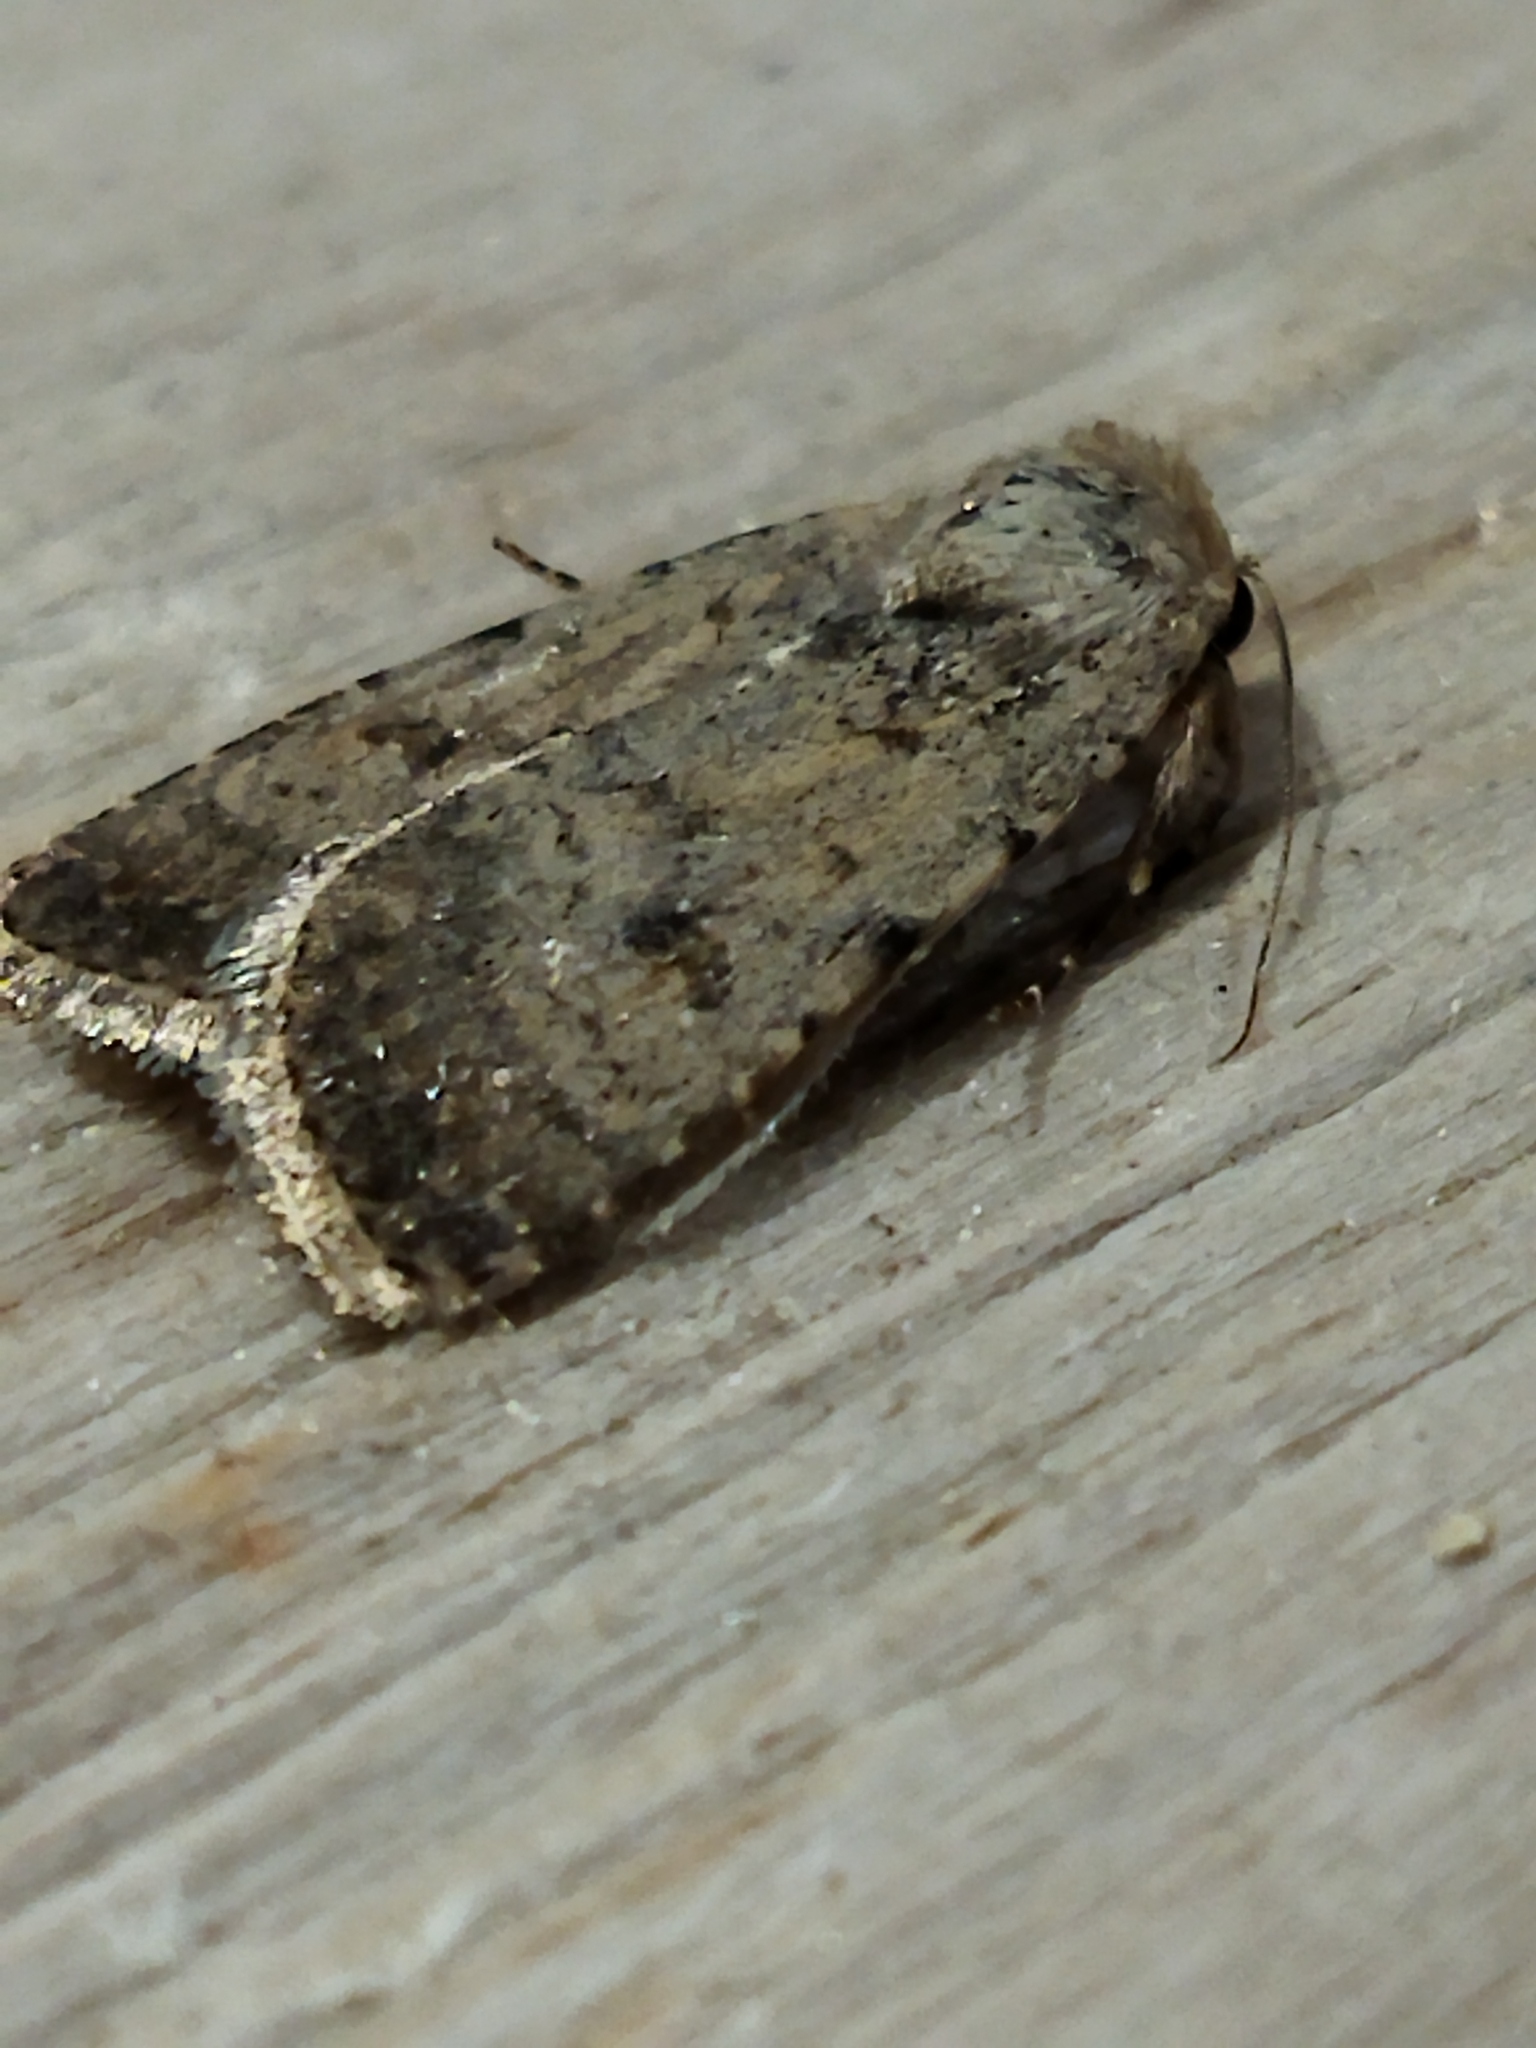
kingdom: Animalia
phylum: Arthropoda
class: Insecta
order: Lepidoptera
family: Noctuidae
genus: Caradrina
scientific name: Caradrina clavipalpis
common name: Pale mottled willow
